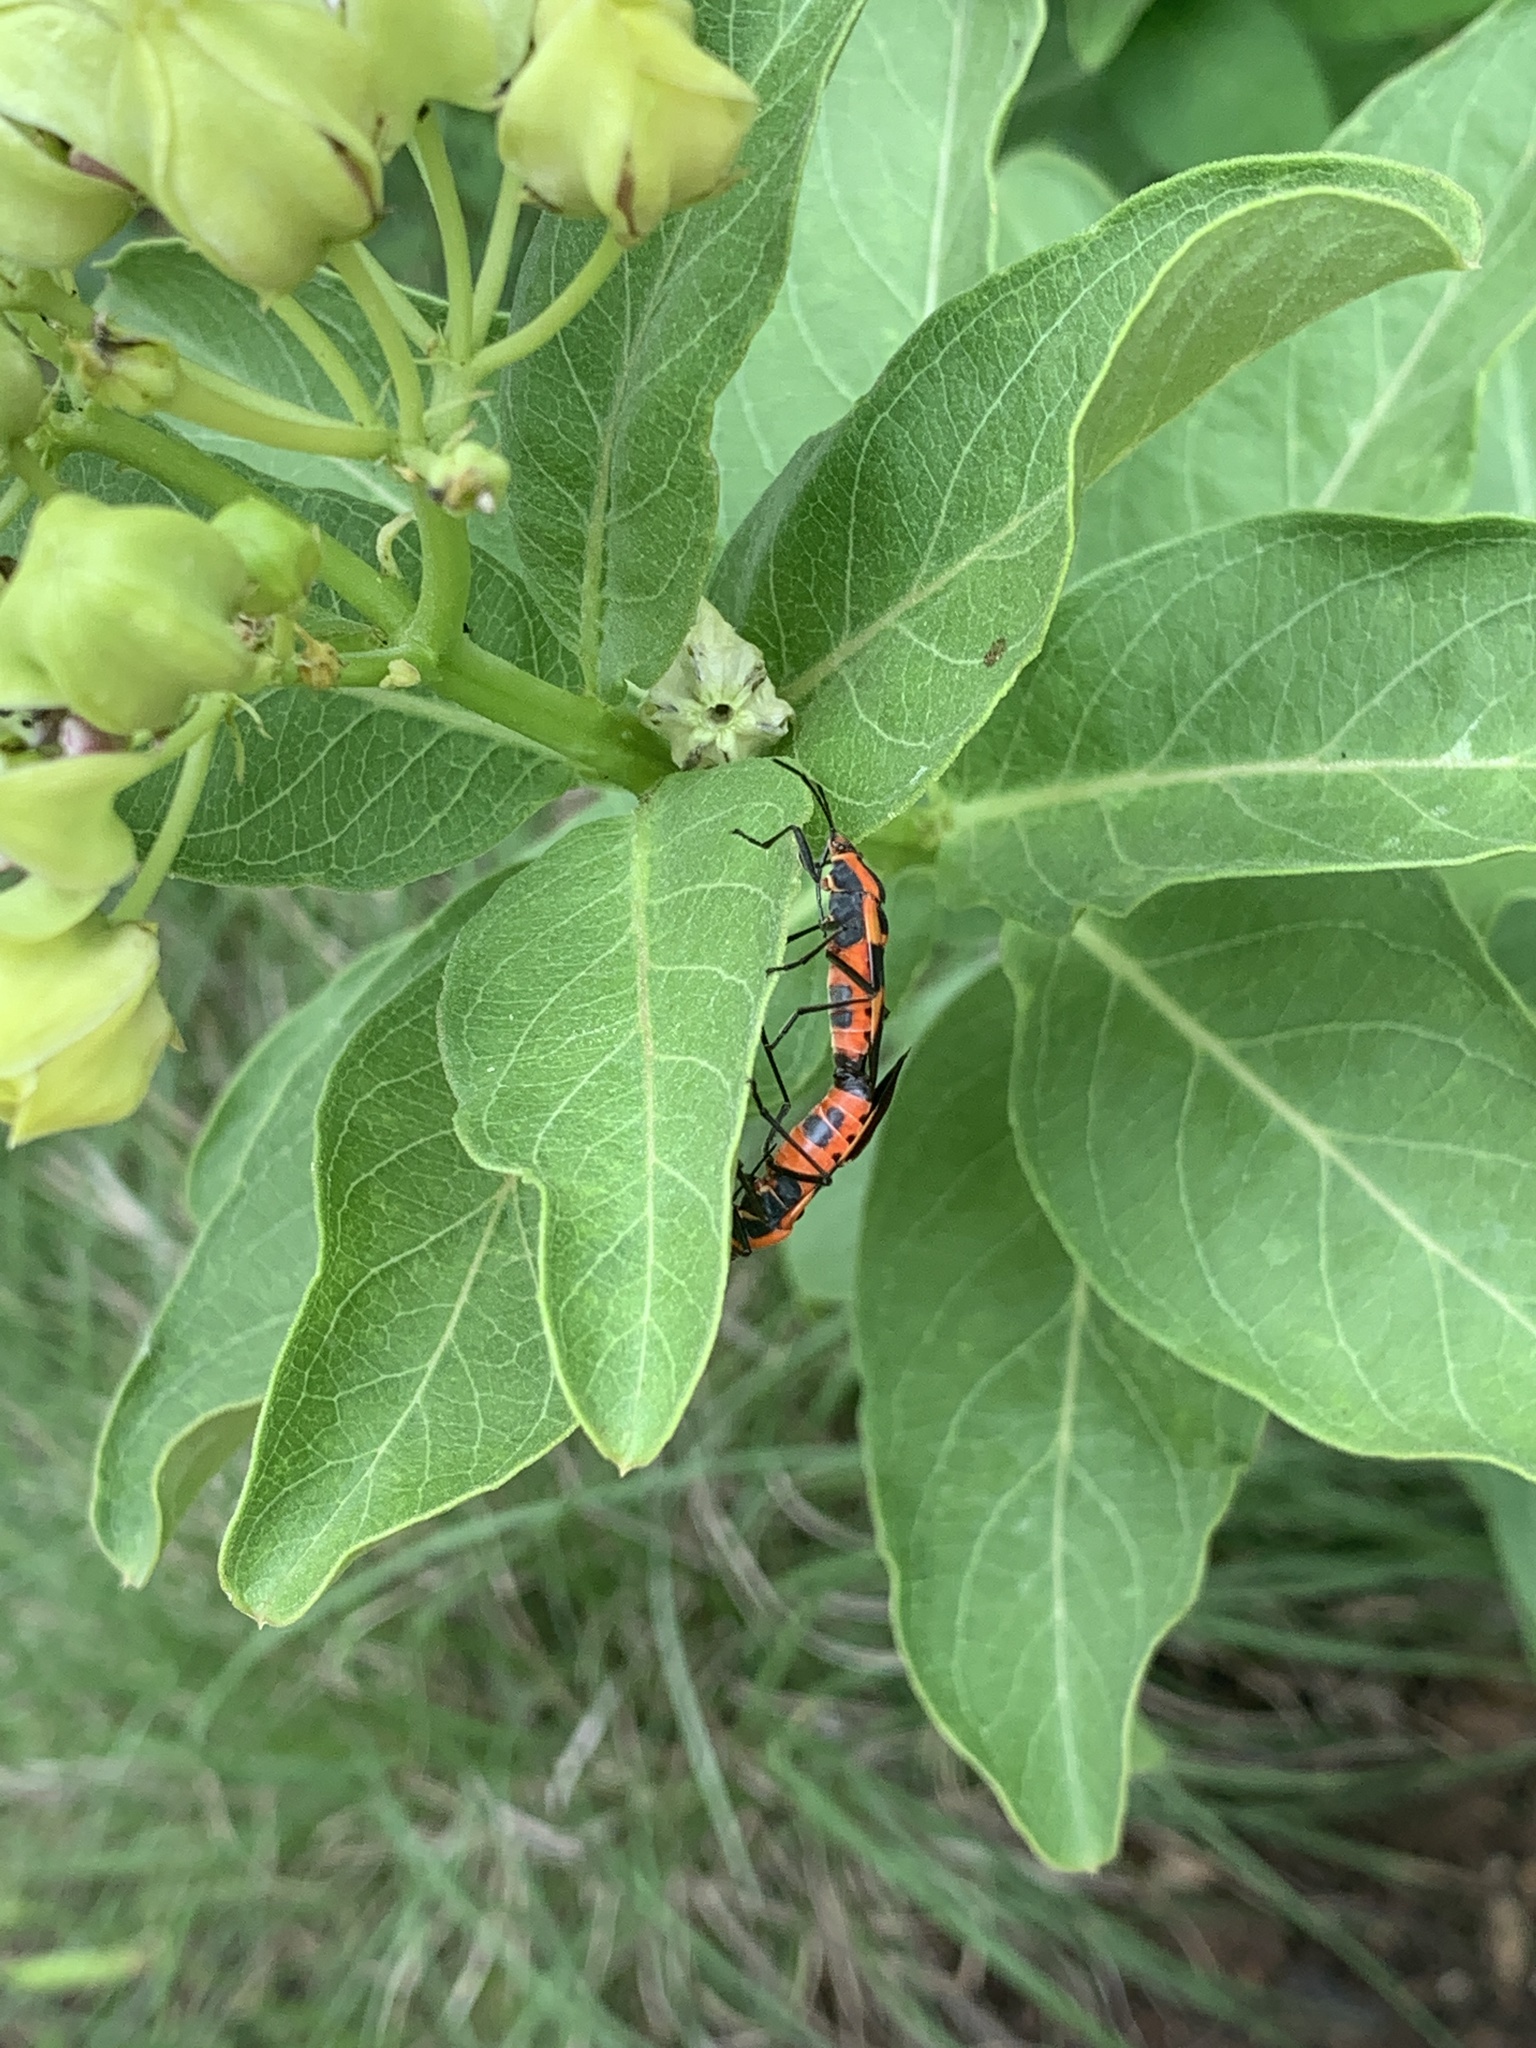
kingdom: Animalia
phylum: Arthropoda
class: Insecta
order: Hemiptera
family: Lygaeidae
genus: Oncopeltus
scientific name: Oncopeltus fasciatus
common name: Large milkweed bug
